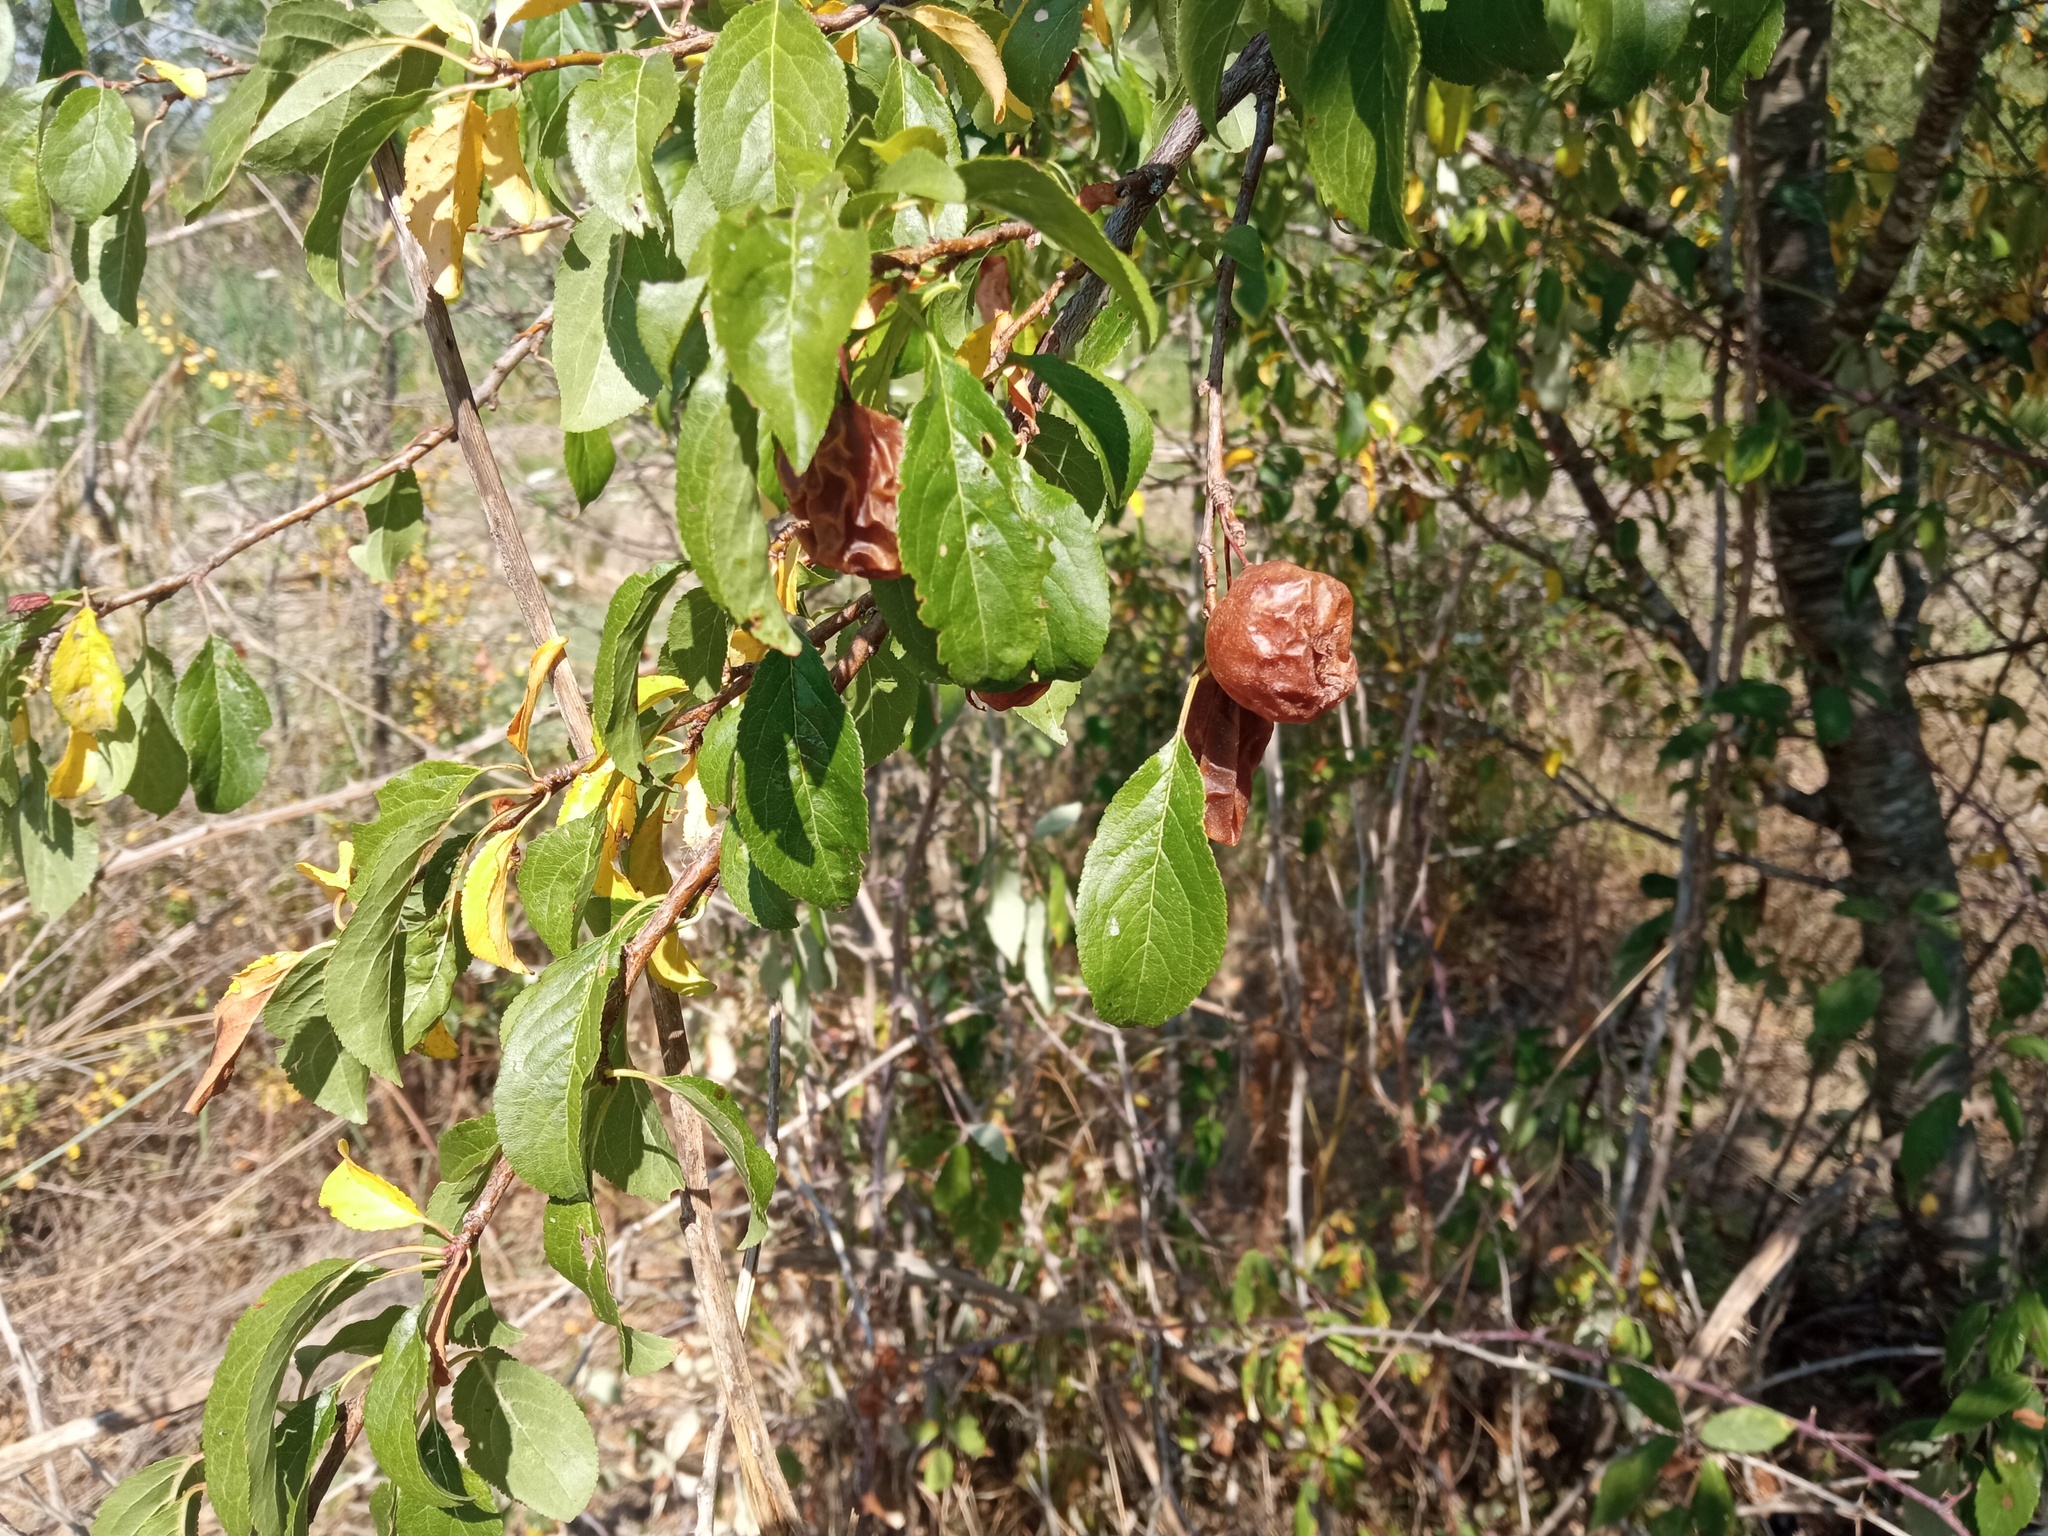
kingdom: Plantae
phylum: Tracheophyta
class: Magnoliopsida
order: Rosales
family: Rosaceae
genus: Prunus
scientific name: Prunus domestica
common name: Wild plum
